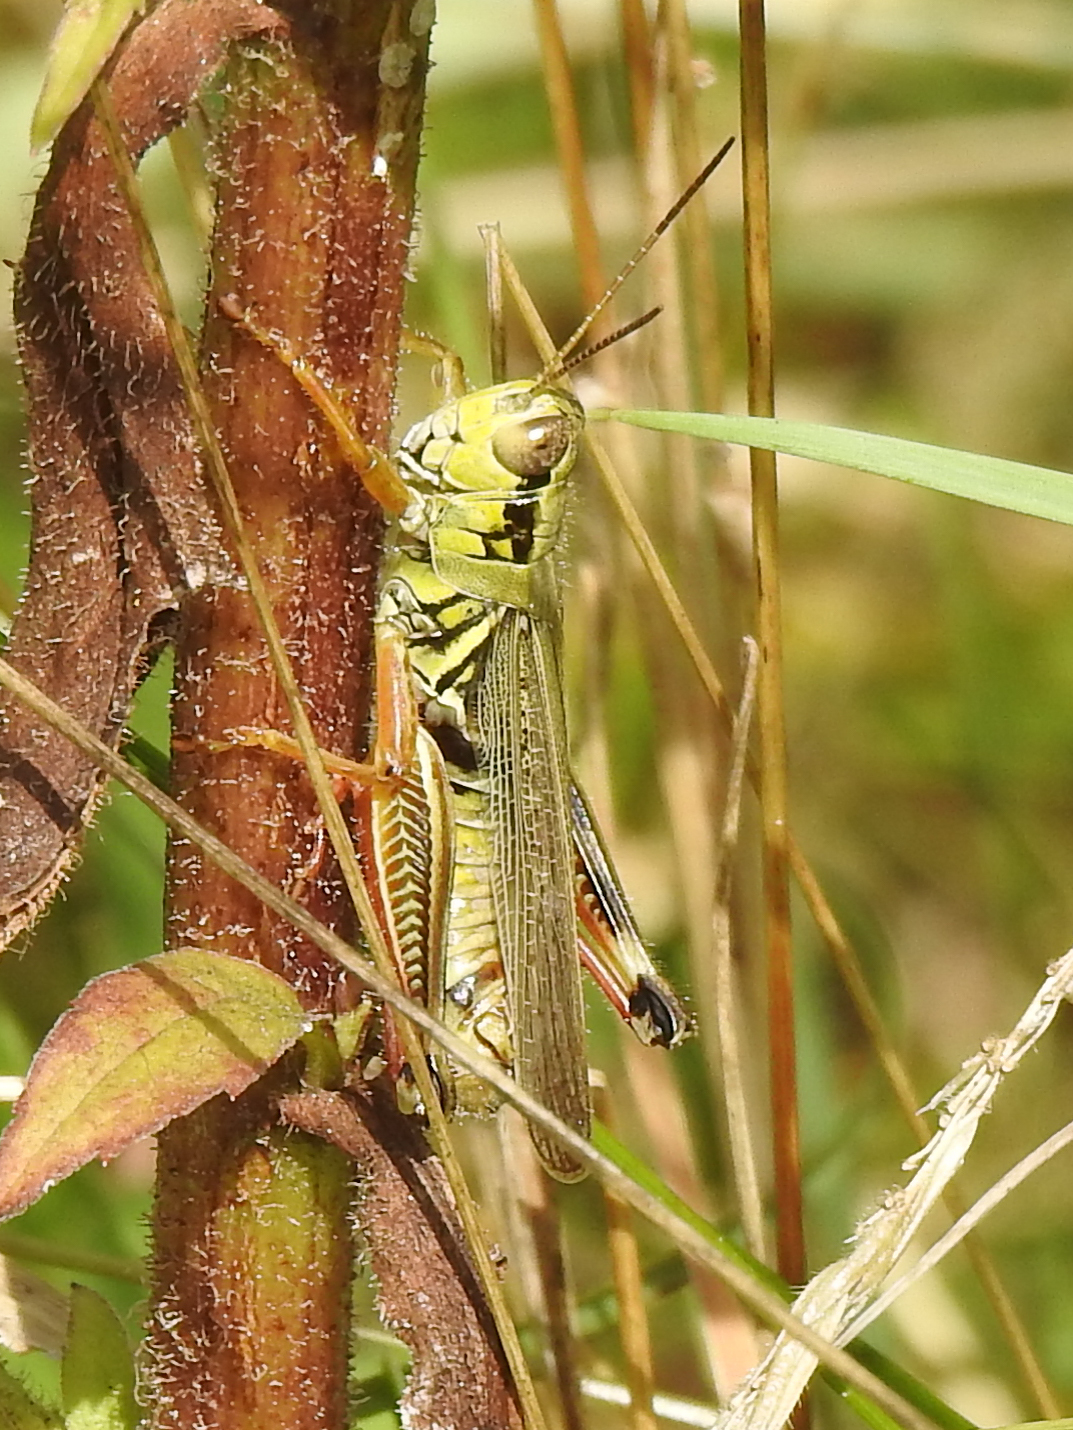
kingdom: Animalia
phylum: Arthropoda
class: Insecta
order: Orthoptera
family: Acrididae
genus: Melanoplus
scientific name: Melanoplus femurrubrum
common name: Red-legged grasshopper
